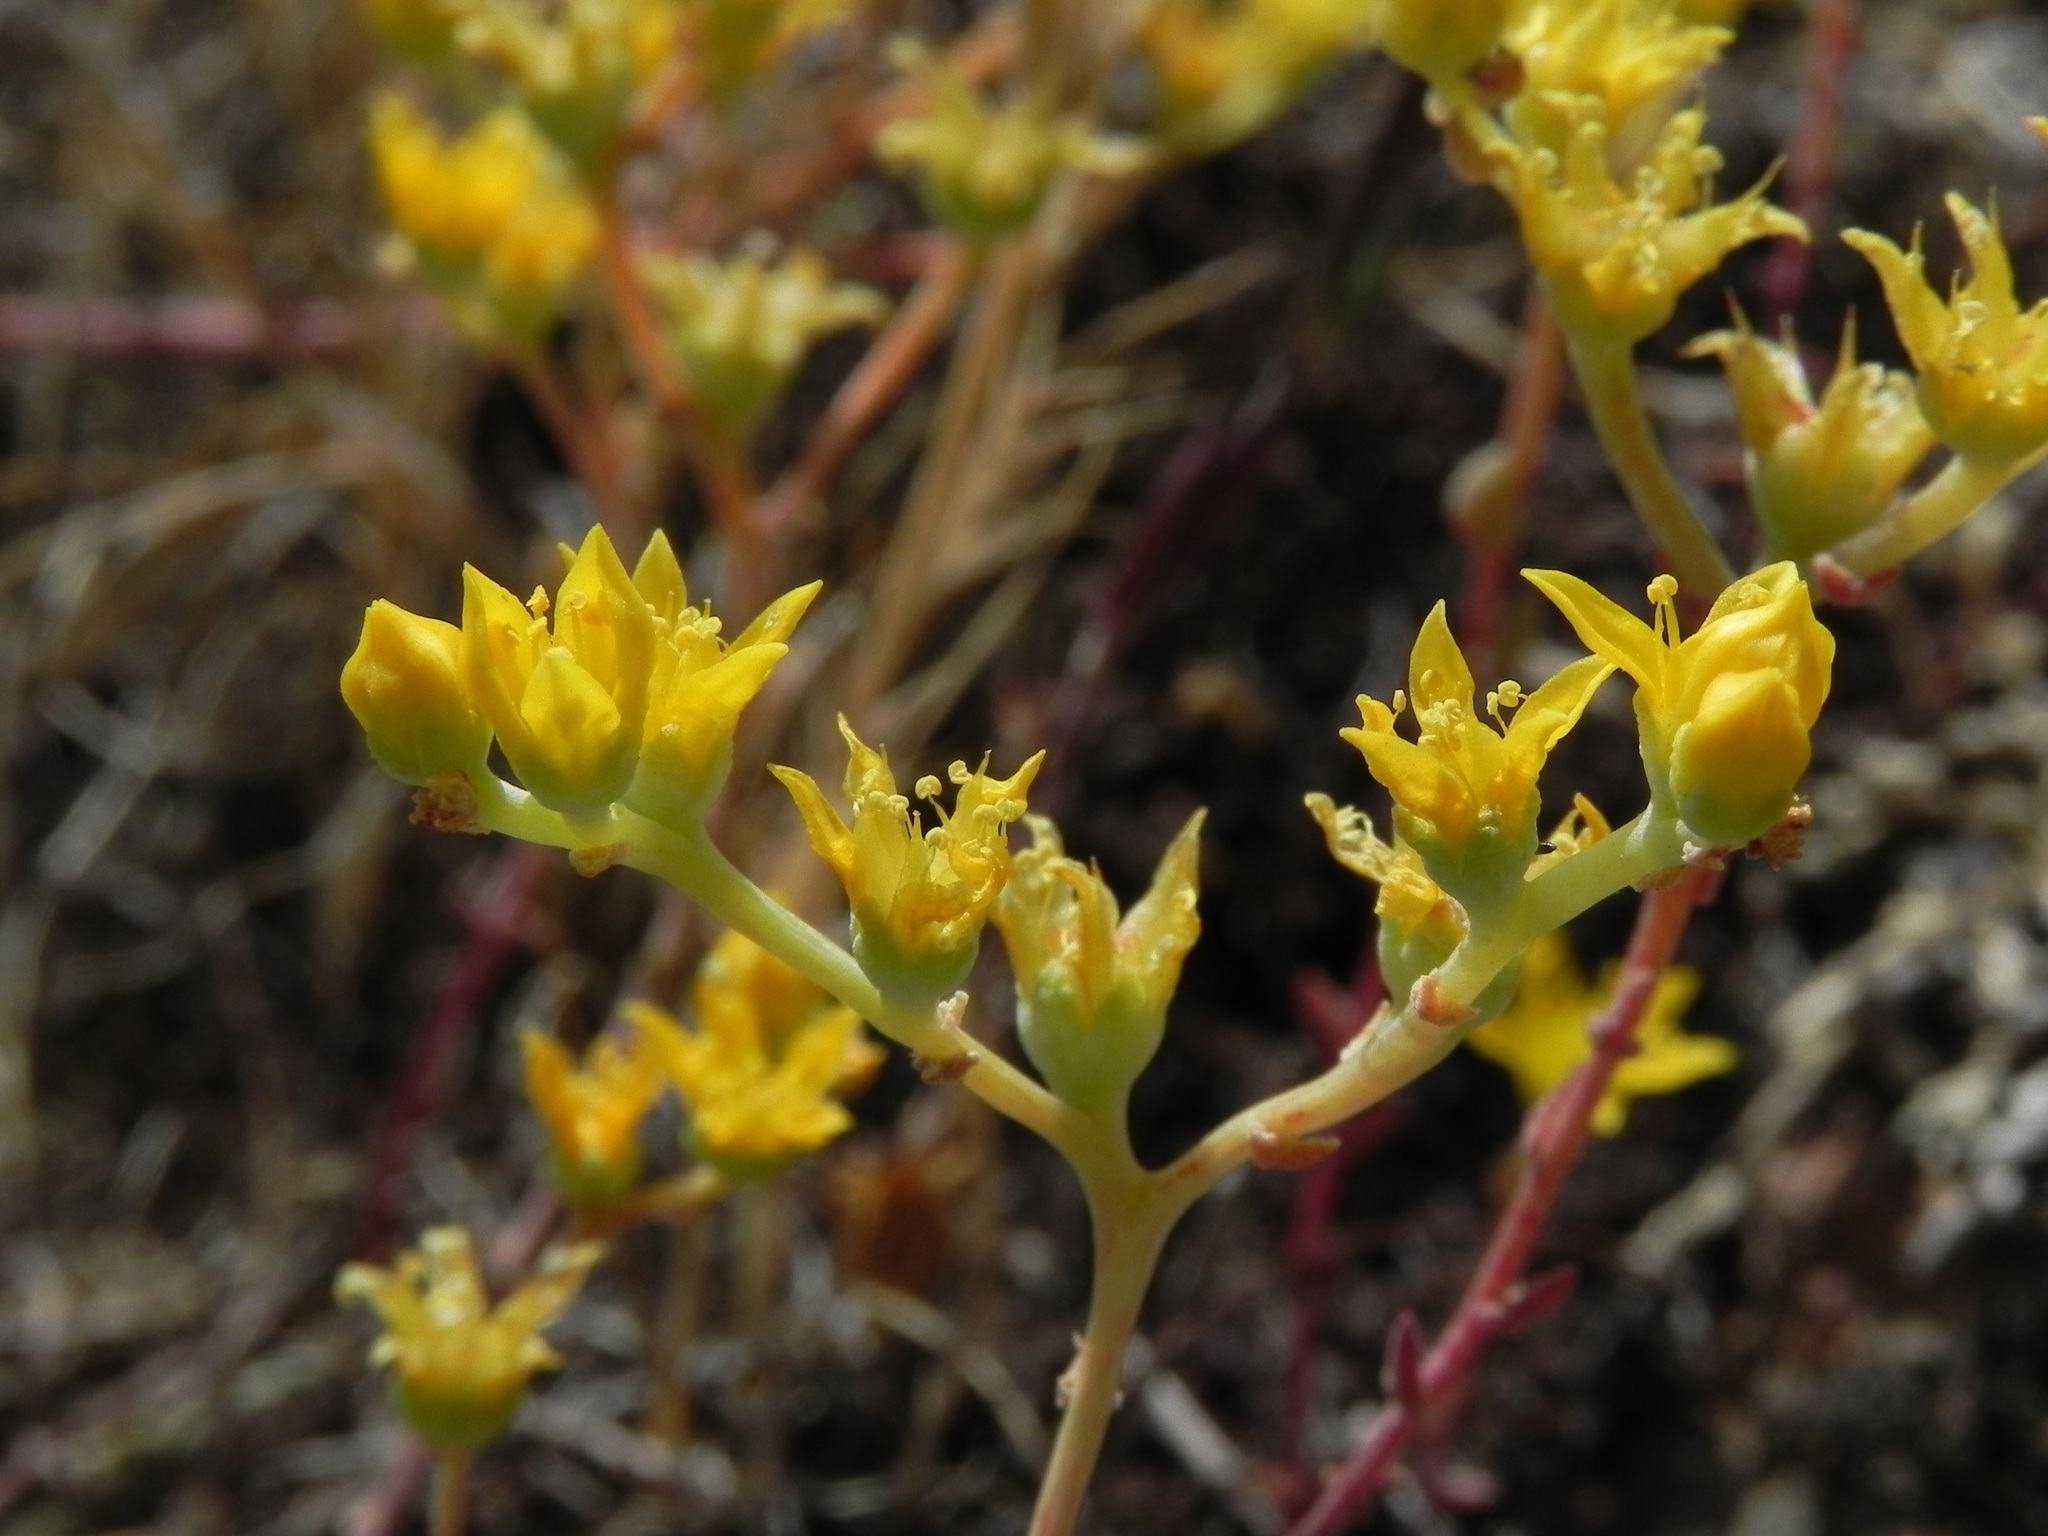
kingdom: Plantae
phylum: Tracheophyta
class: Magnoliopsida
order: Saxifragales
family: Crassulaceae
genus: Dudleya
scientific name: Dudleya variegata
